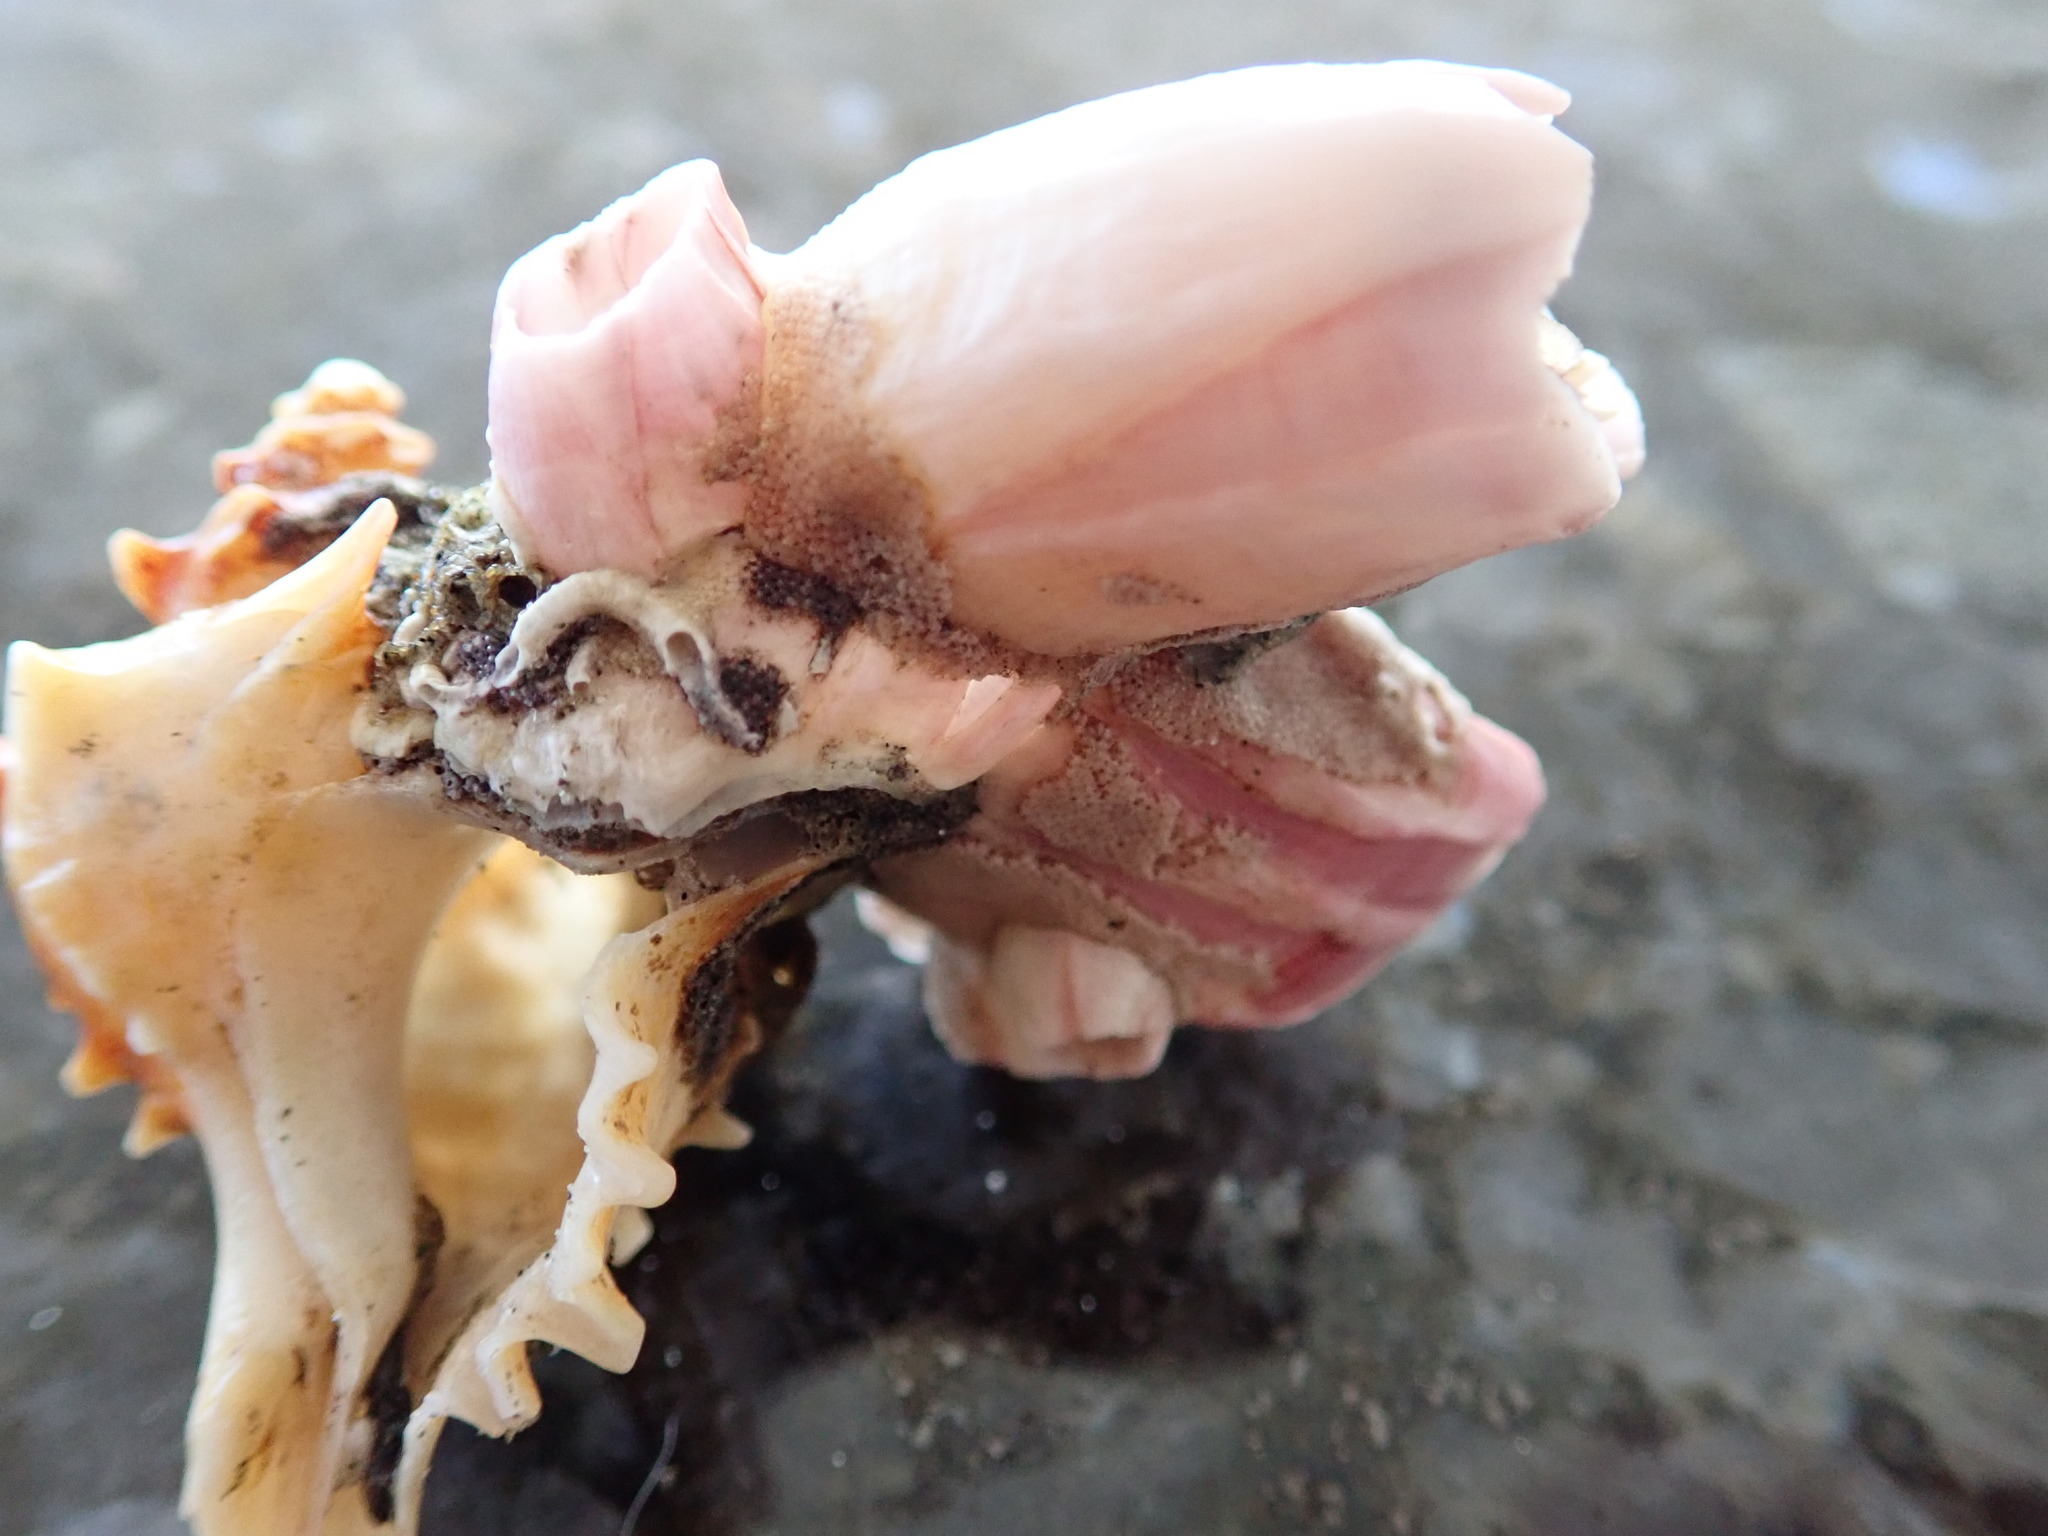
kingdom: Animalia
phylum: Arthropoda
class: Maxillopoda
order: Sessilia
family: Balanidae
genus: Notomegabalanus
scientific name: Notomegabalanus decorus
